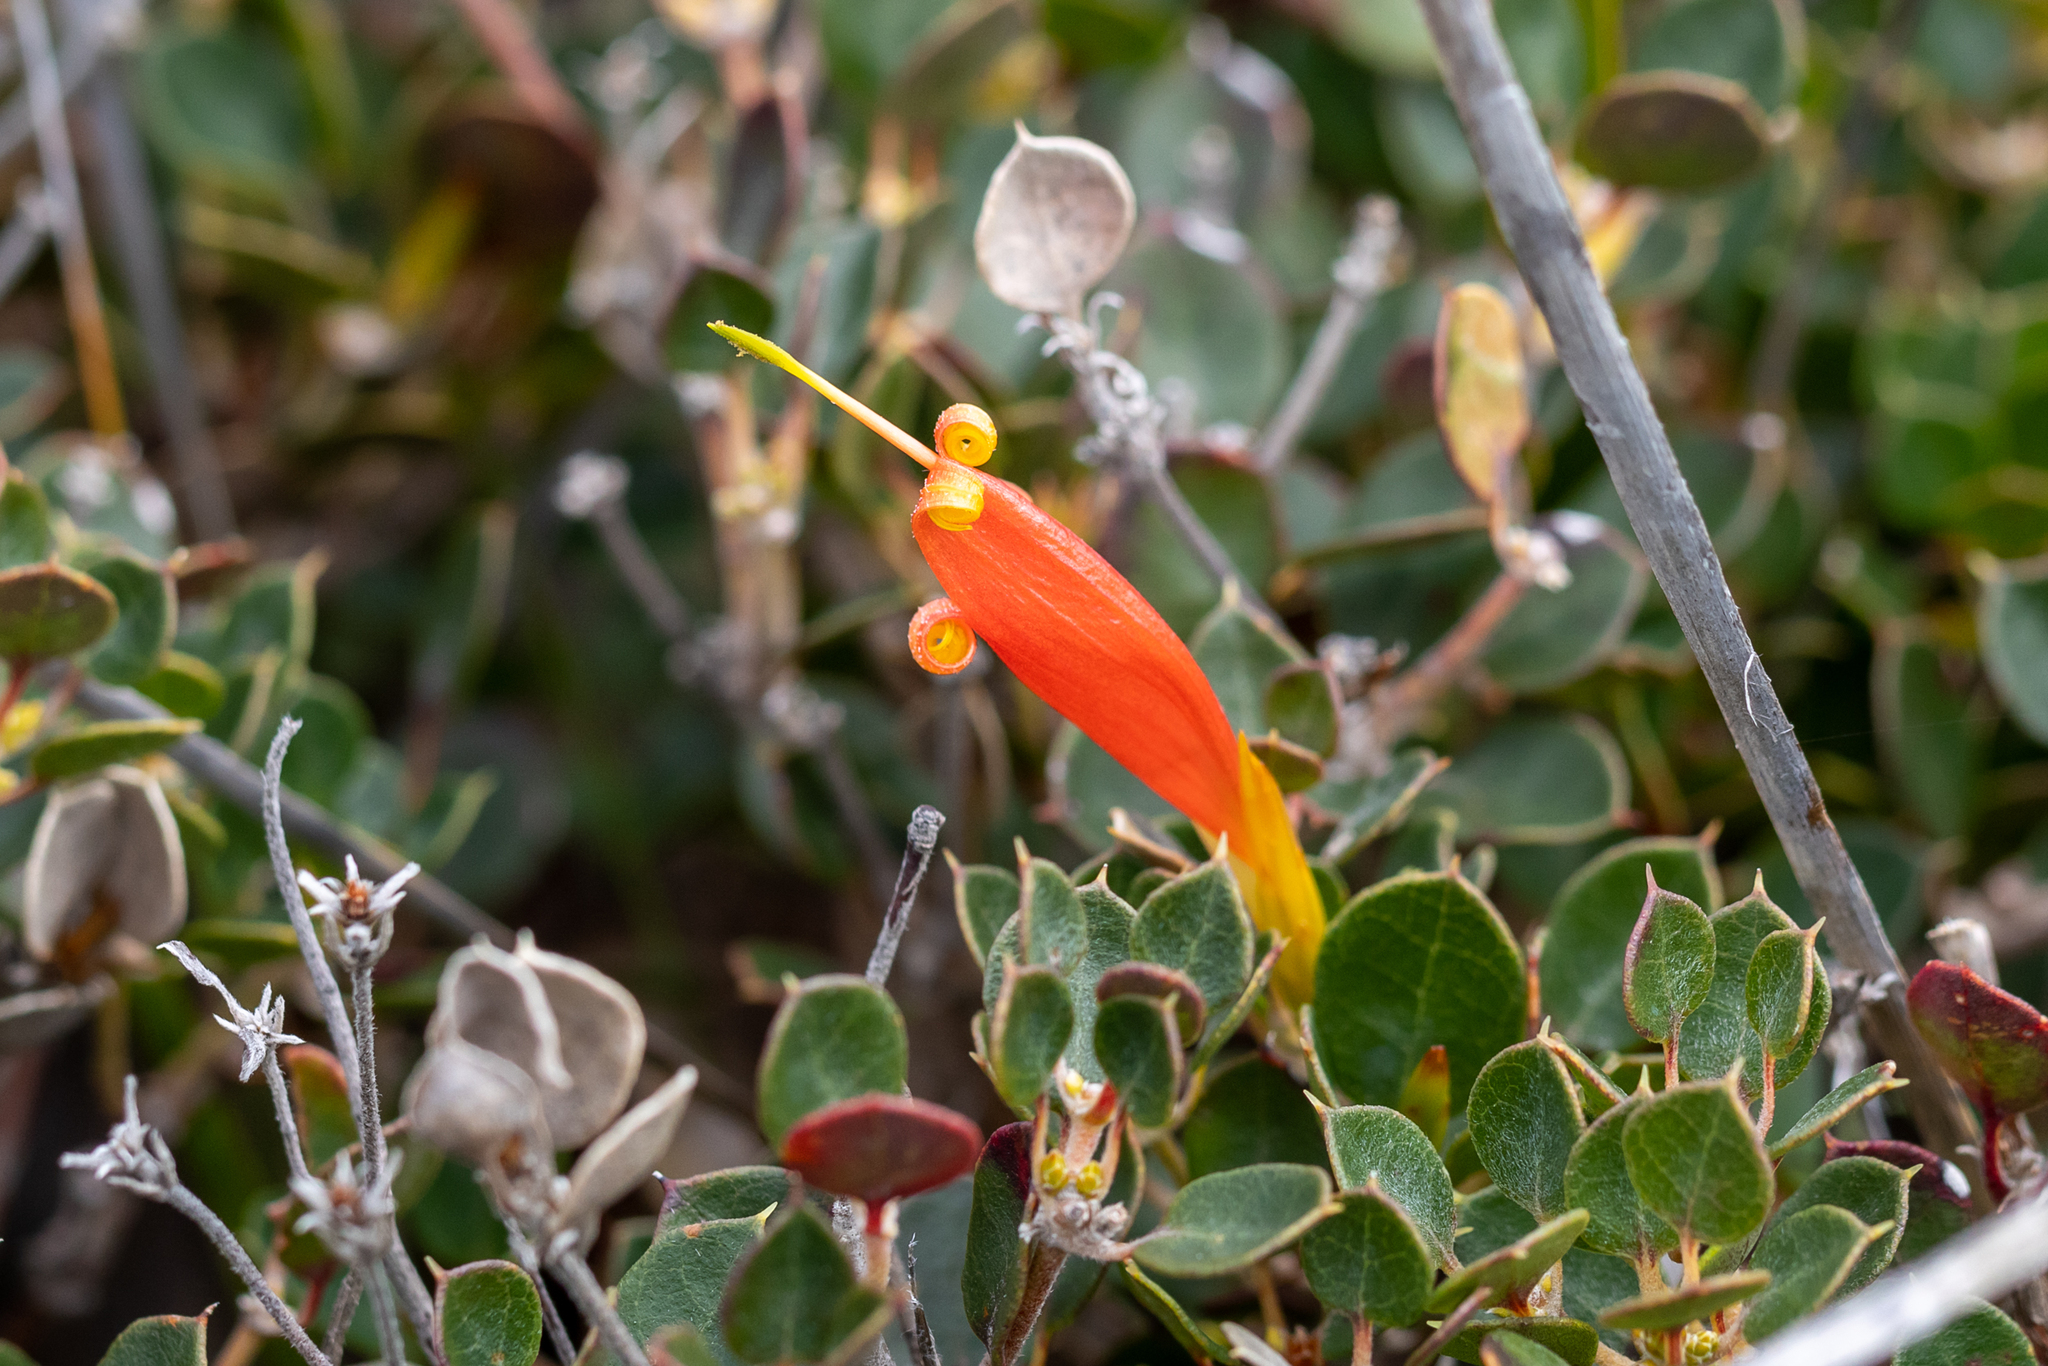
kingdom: Plantae
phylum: Tracheophyta
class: Magnoliopsida
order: Proteales
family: Proteaceae
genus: Lambertia
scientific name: Lambertia uniflora
